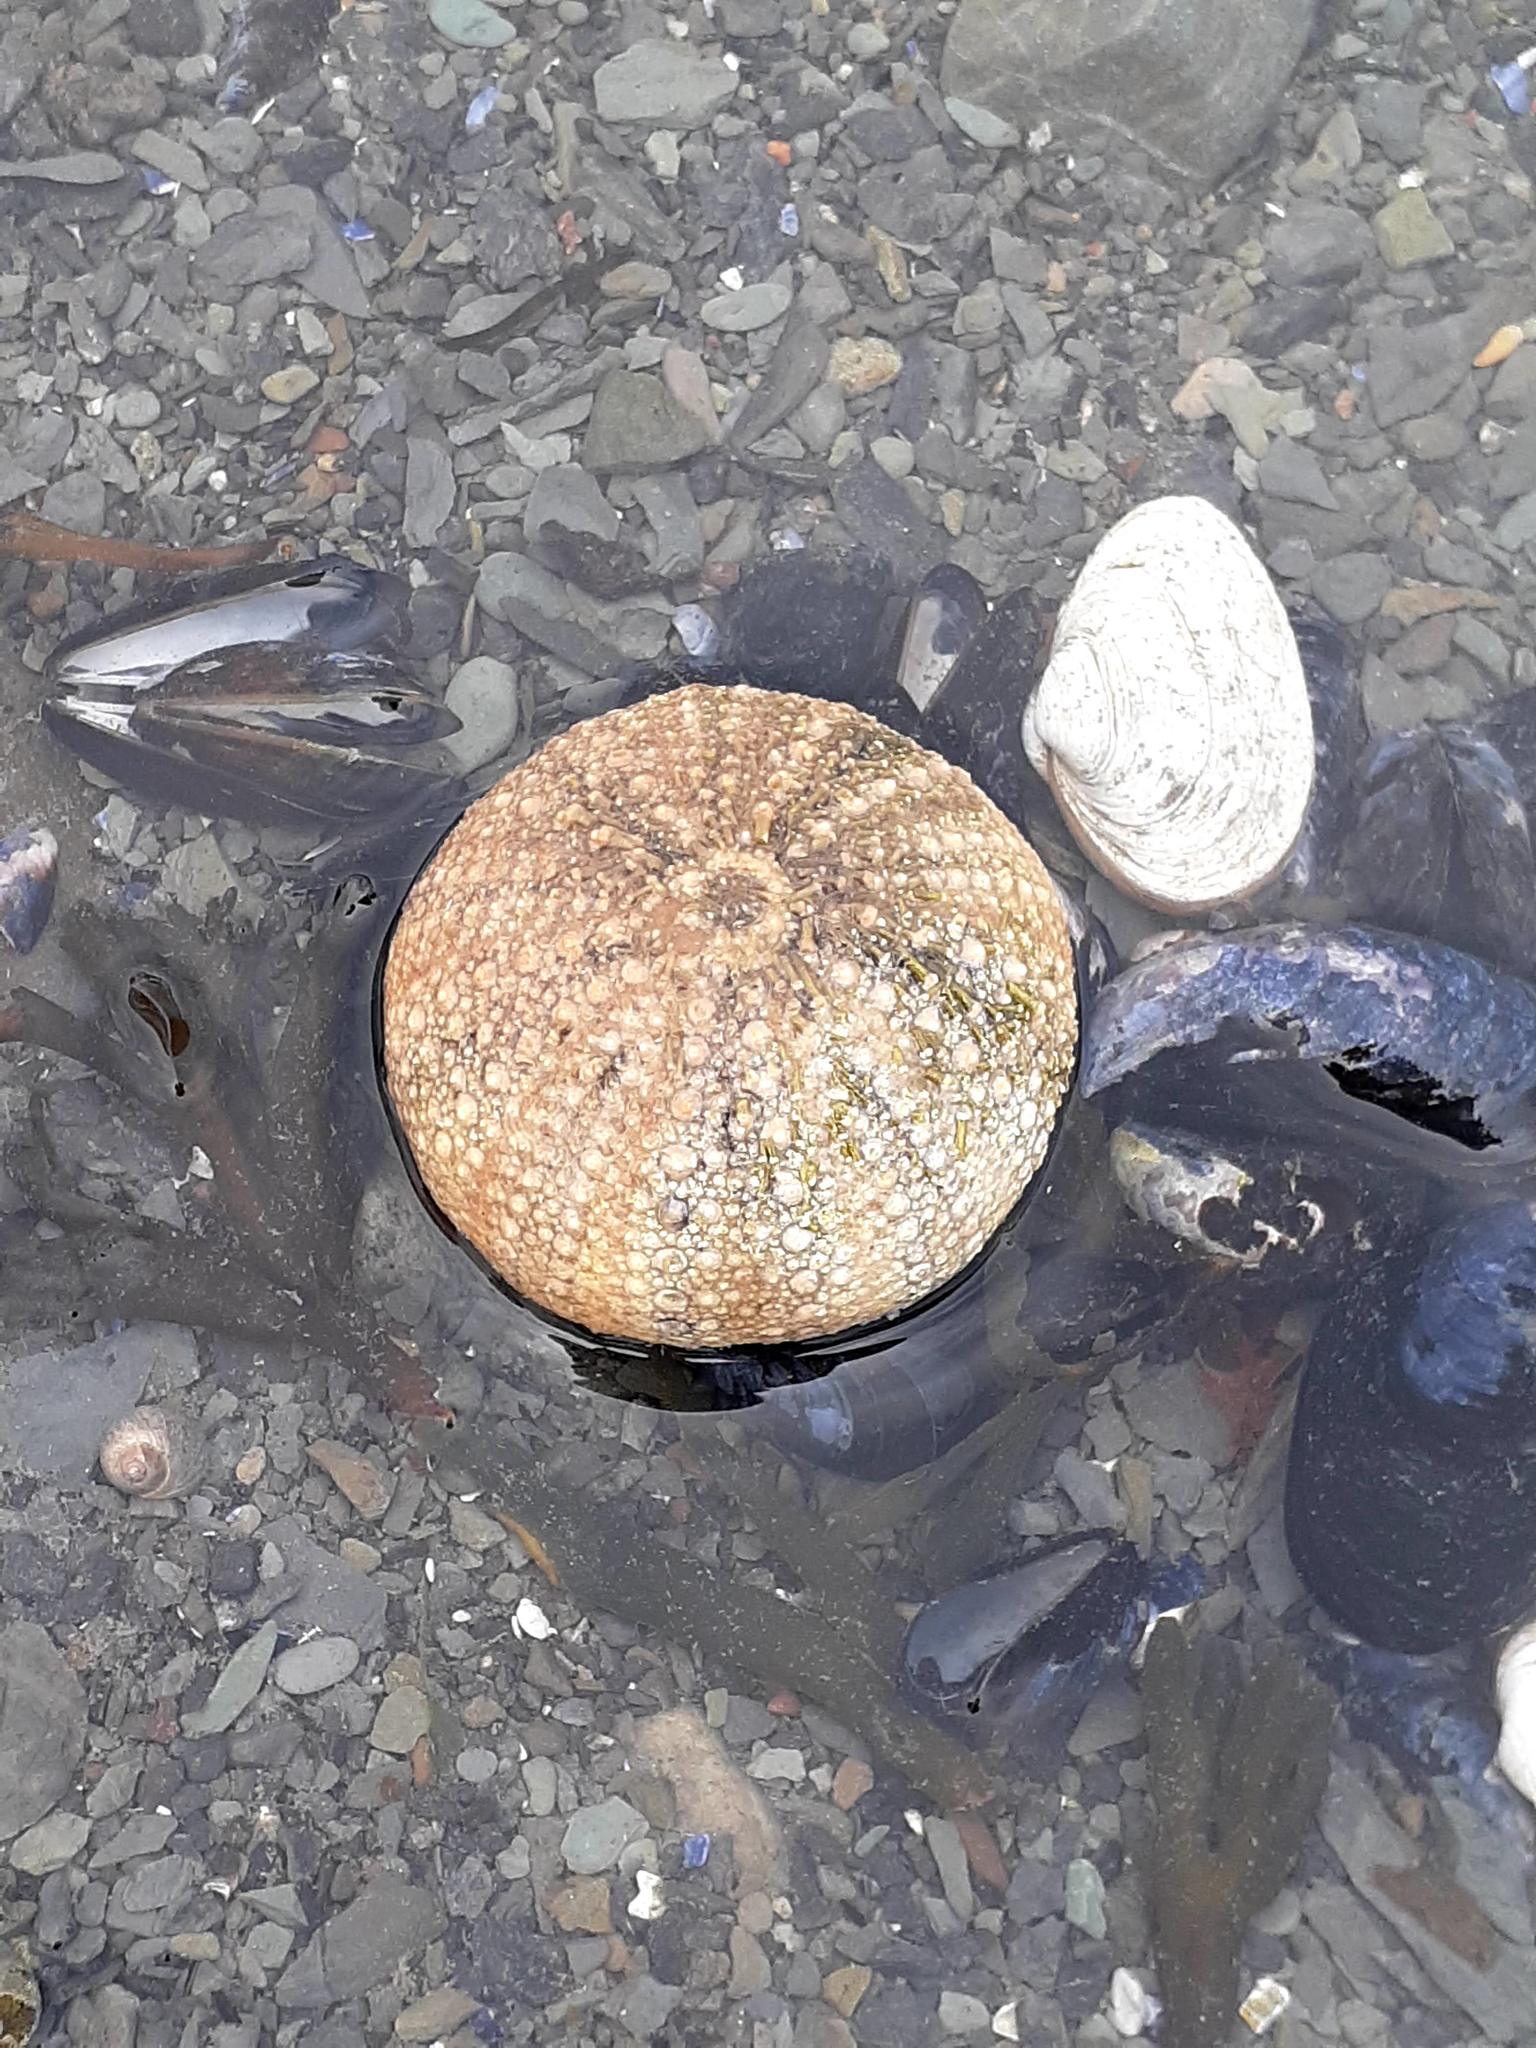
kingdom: Animalia
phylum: Echinodermata
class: Echinoidea
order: Camarodonta
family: Strongylocentrotidae
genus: Strongylocentrotus
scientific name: Strongylocentrotus droebachiensis
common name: Northern sea urchin
